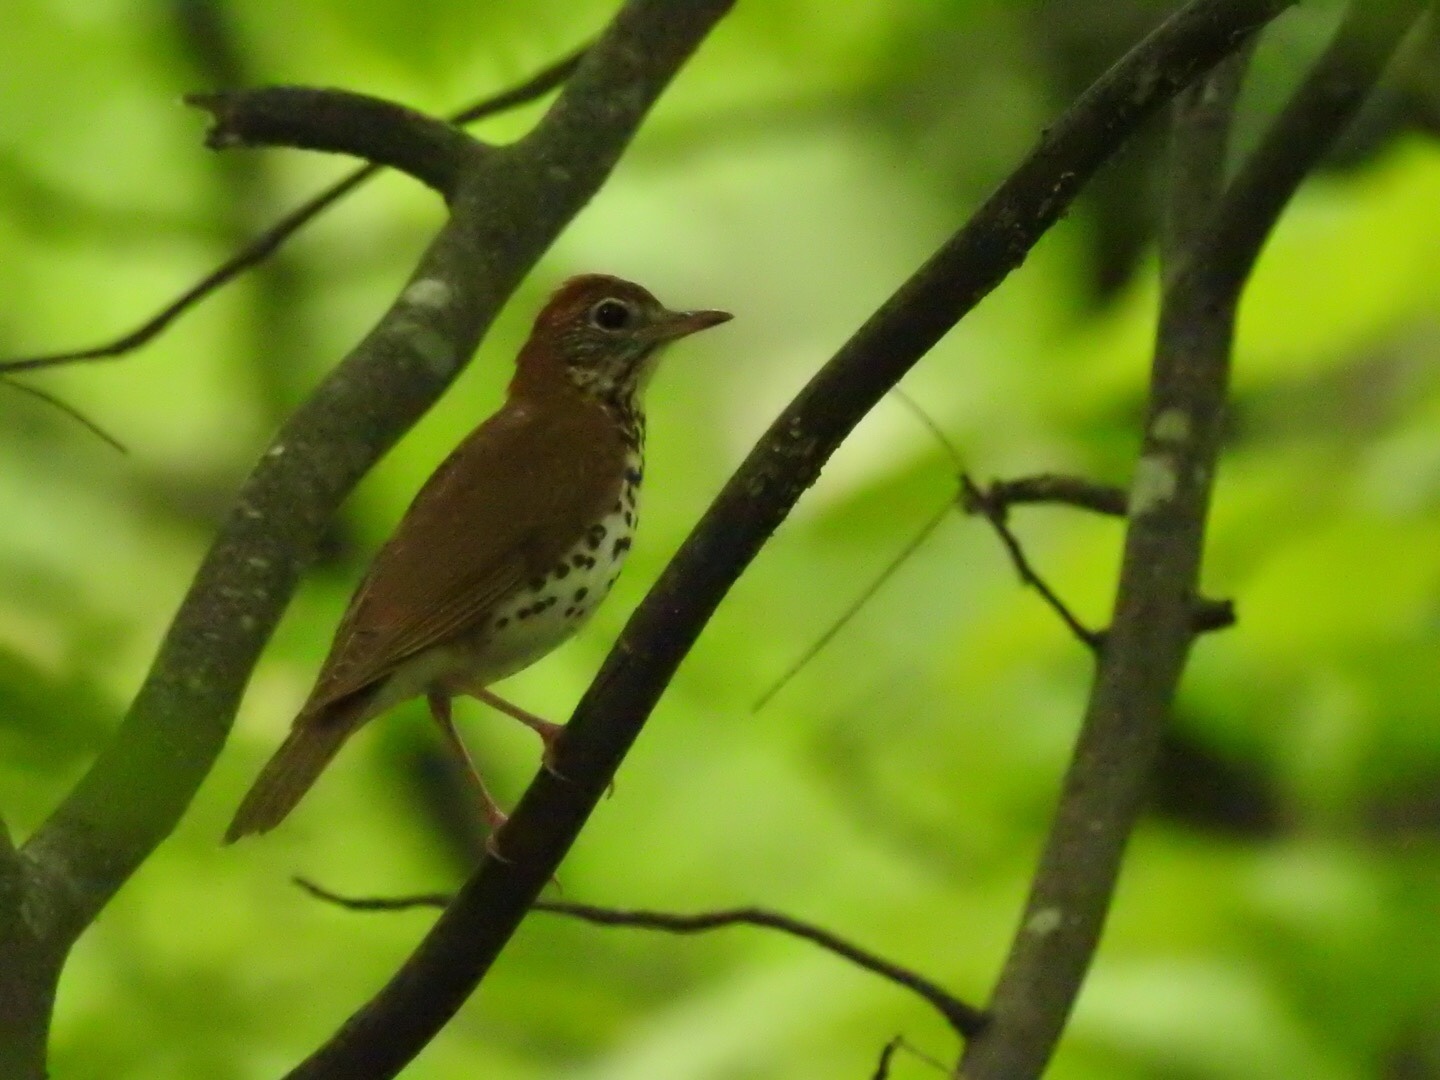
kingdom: Animalia
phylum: Chordata
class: Aves
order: Passeriformes
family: Turdidae
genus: Hylocichla
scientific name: Hylocichla mustelina
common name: Wood thrush
